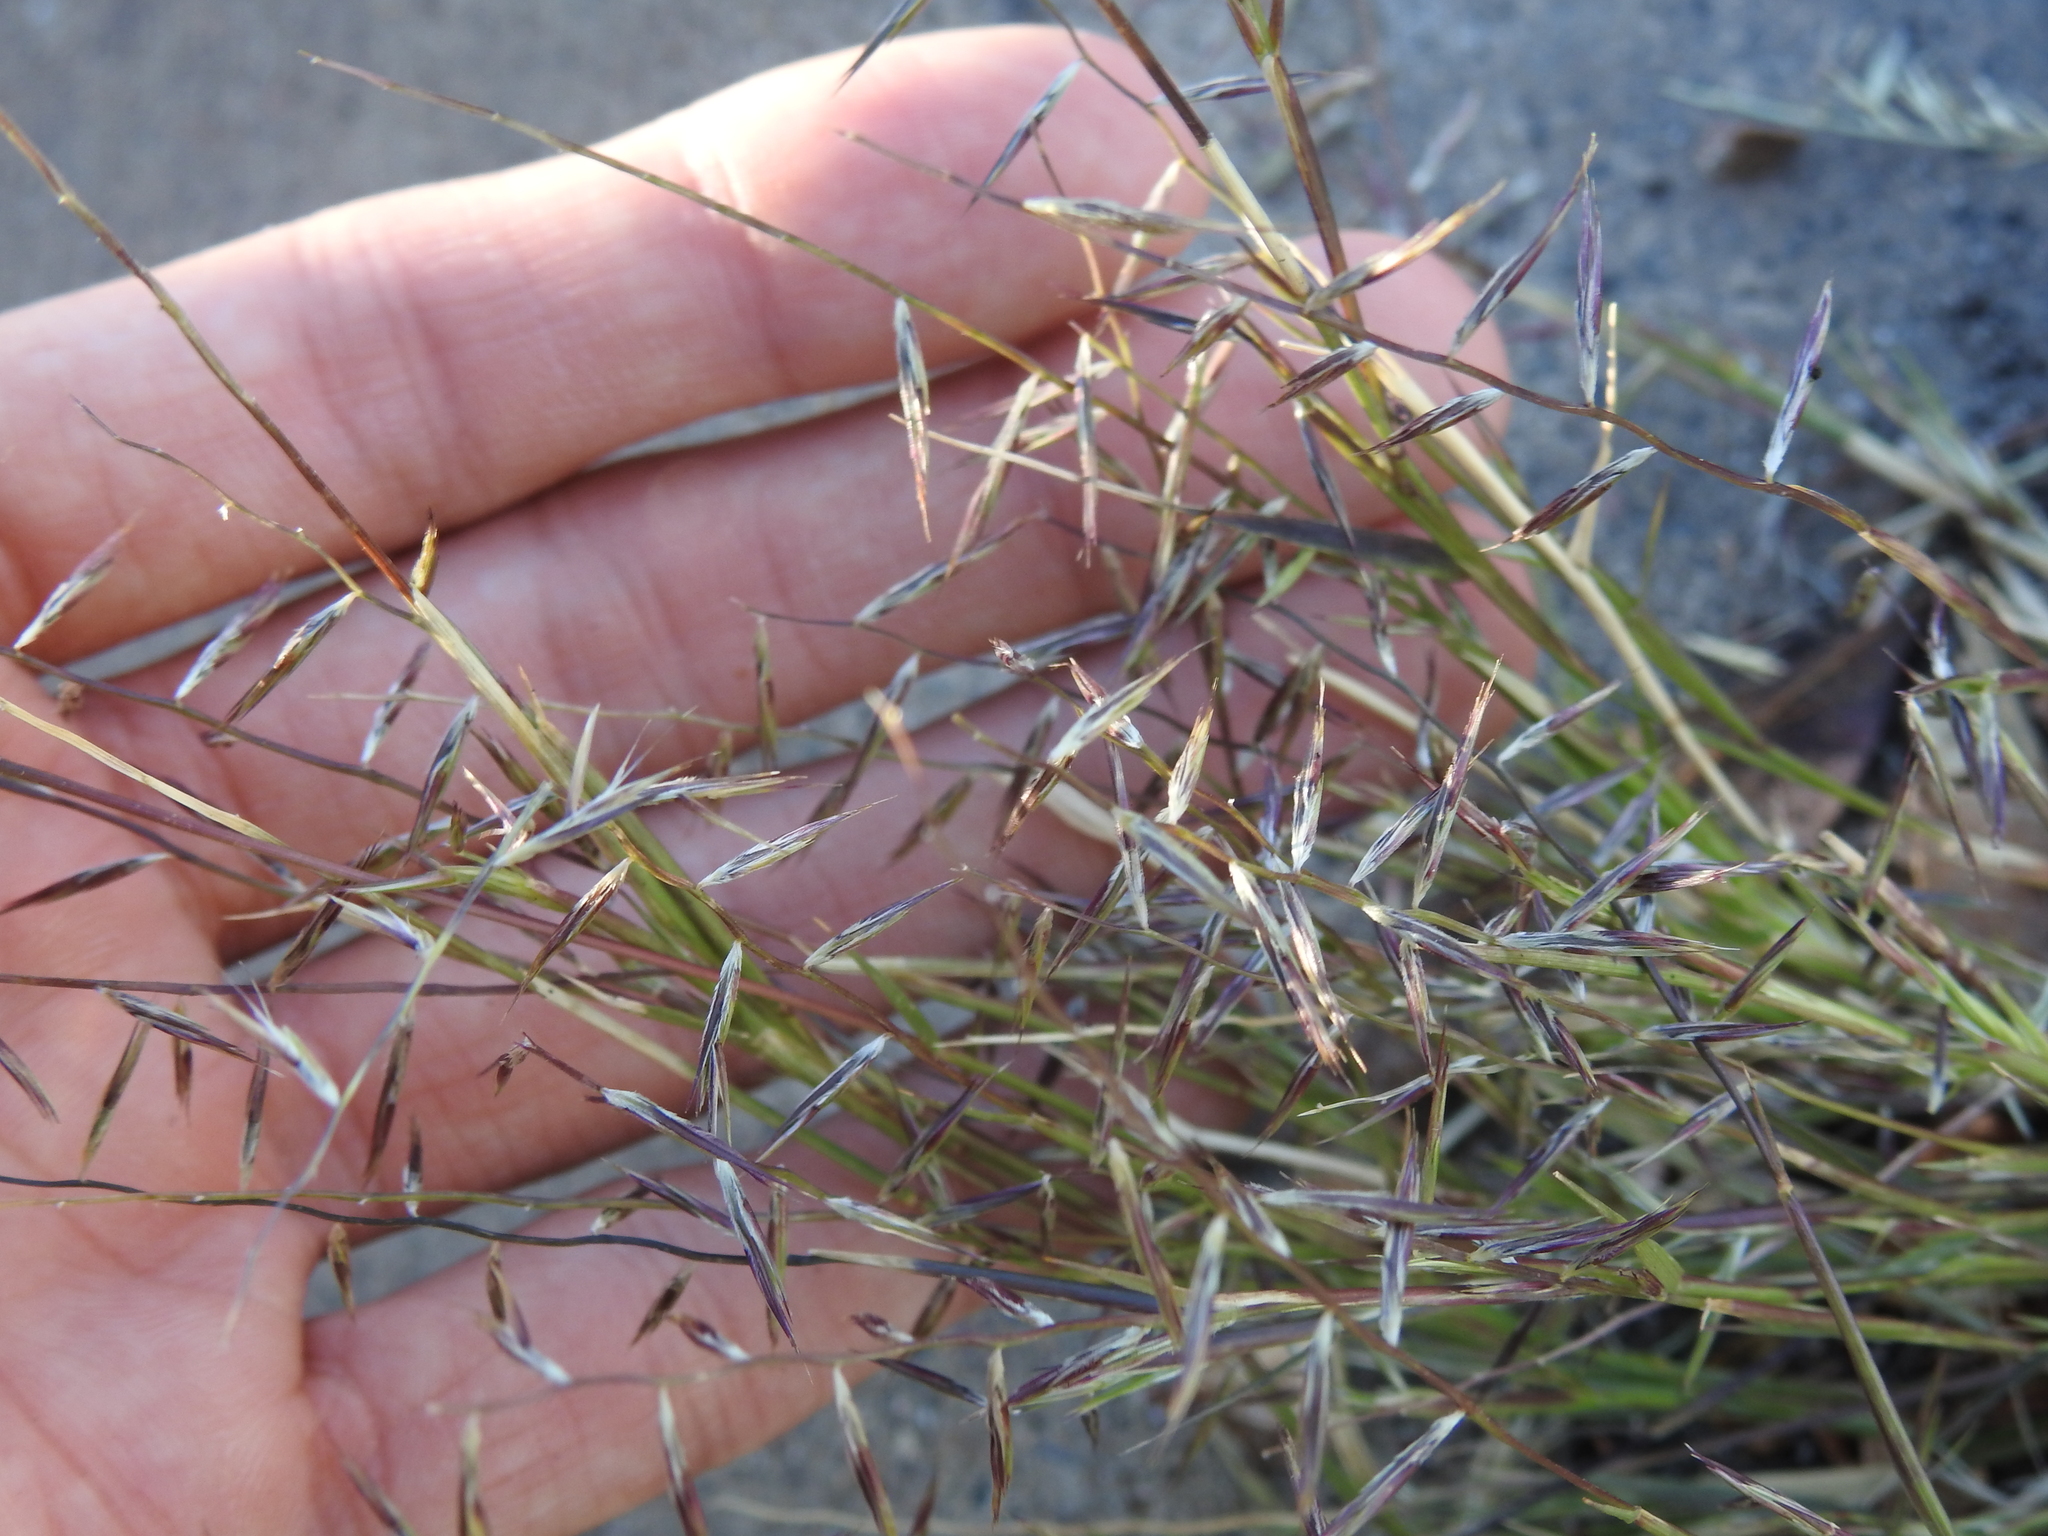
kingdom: Plantae
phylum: Tracheophyta
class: Liliopsida
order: Poales
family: Poaceae
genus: Bouteloua
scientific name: Bouteloua aristidoides
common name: Needle grama
